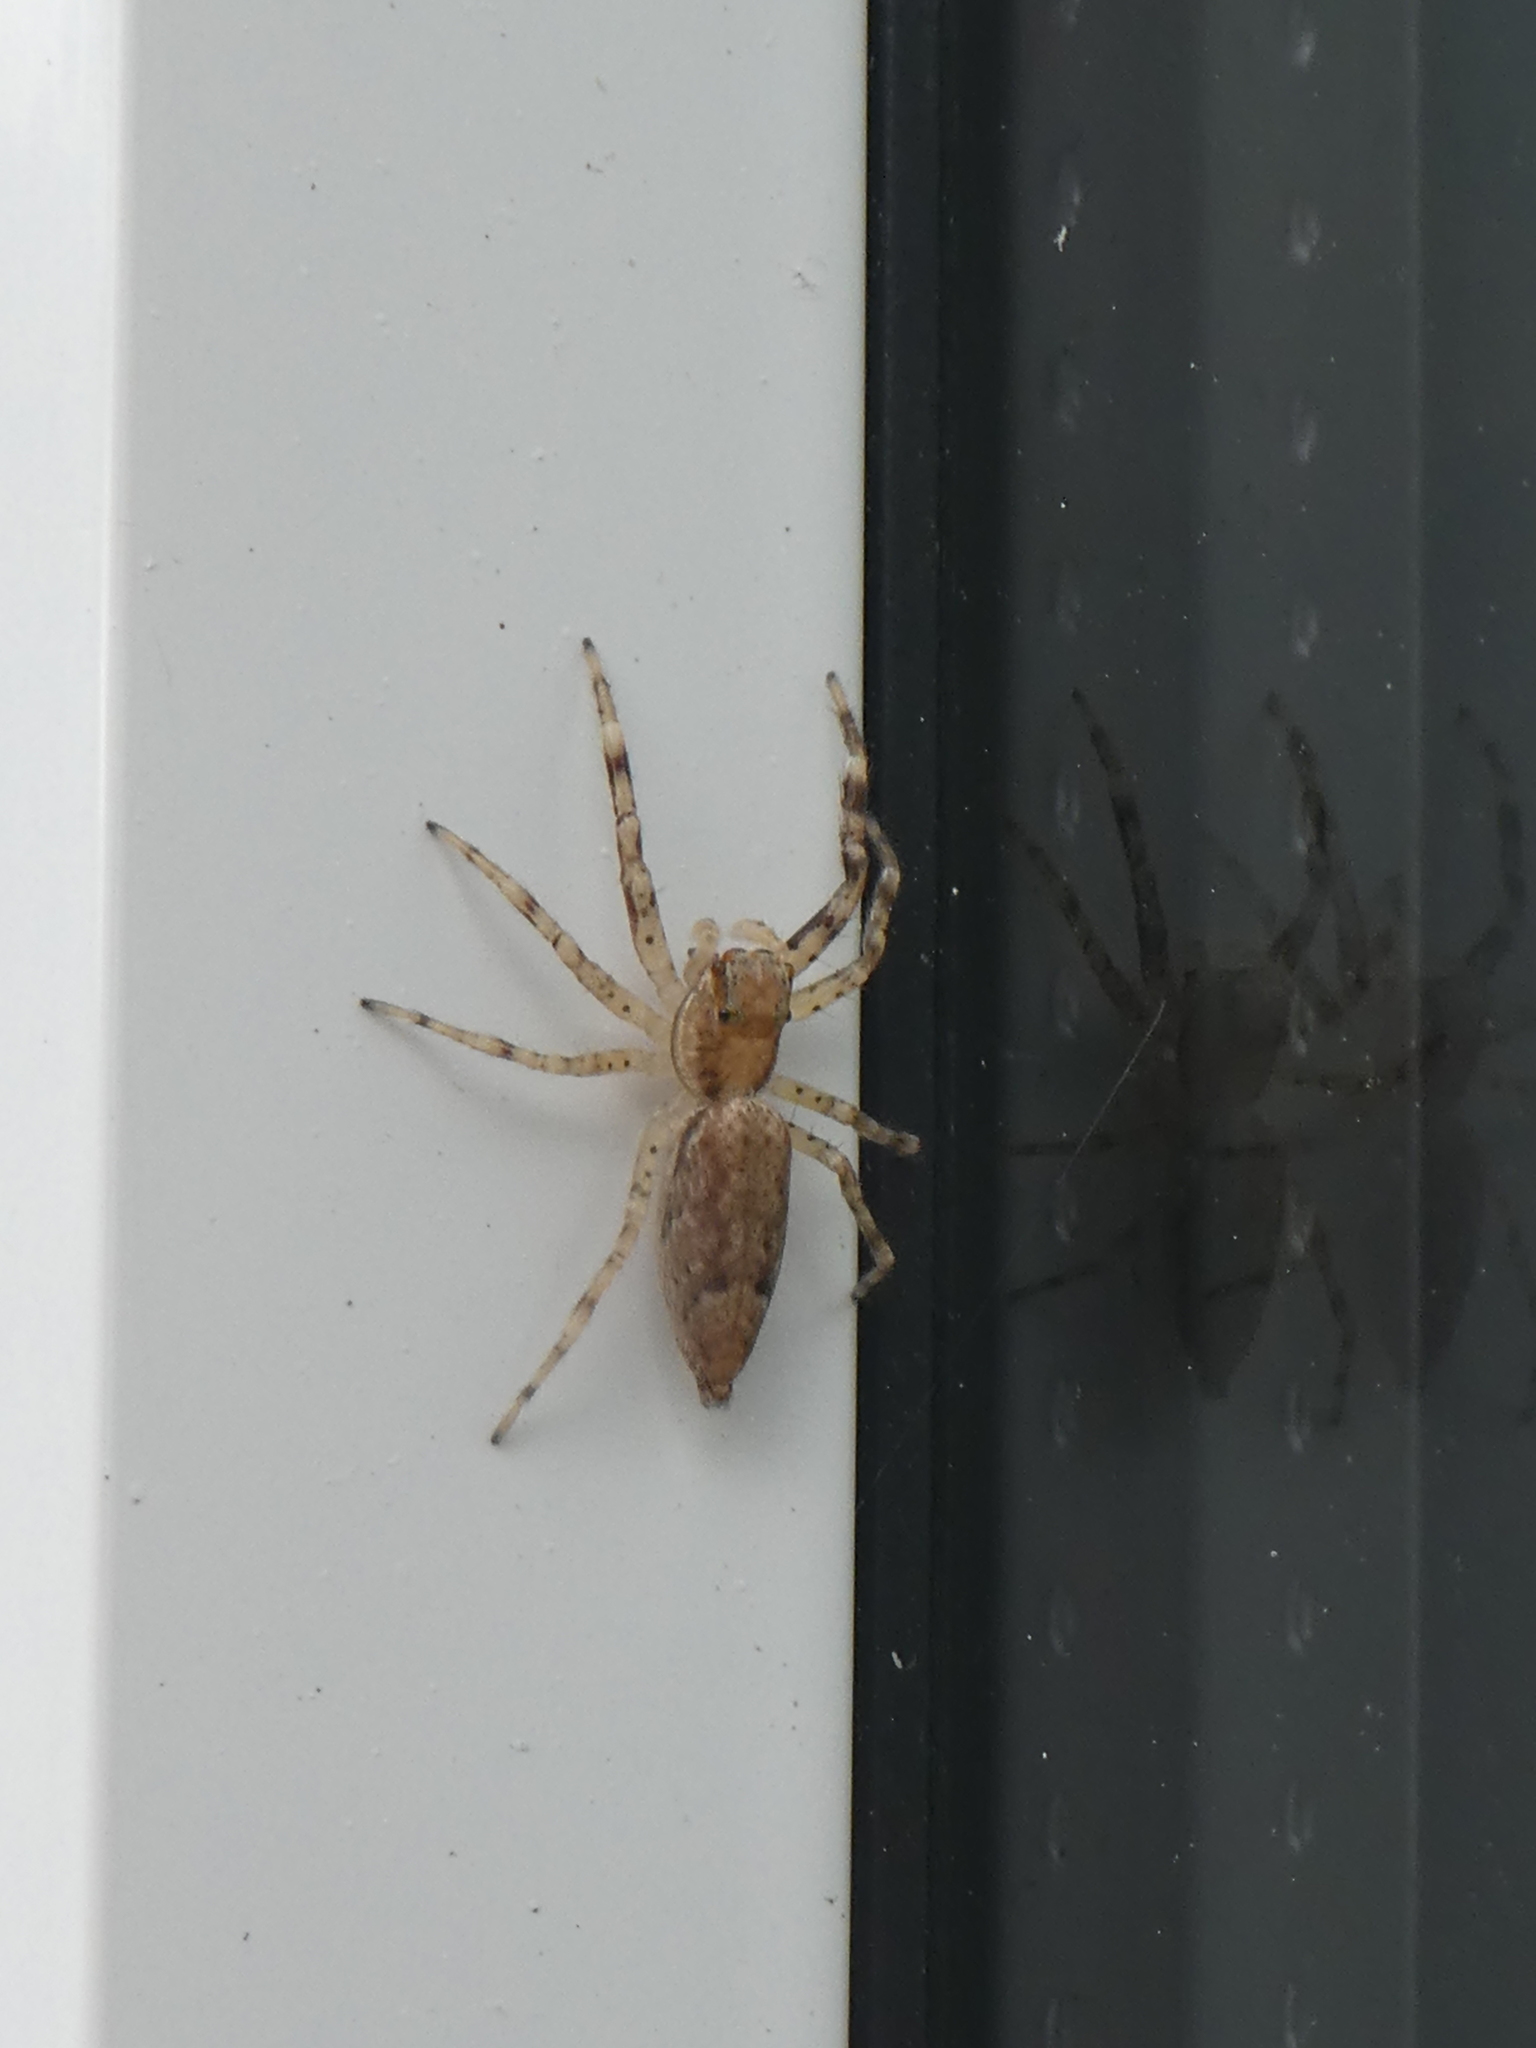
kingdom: Animalia
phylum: Arthropoda
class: Arachnida
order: Araneae
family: Salticidae
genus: Helpis
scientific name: Helpis minitabunda
